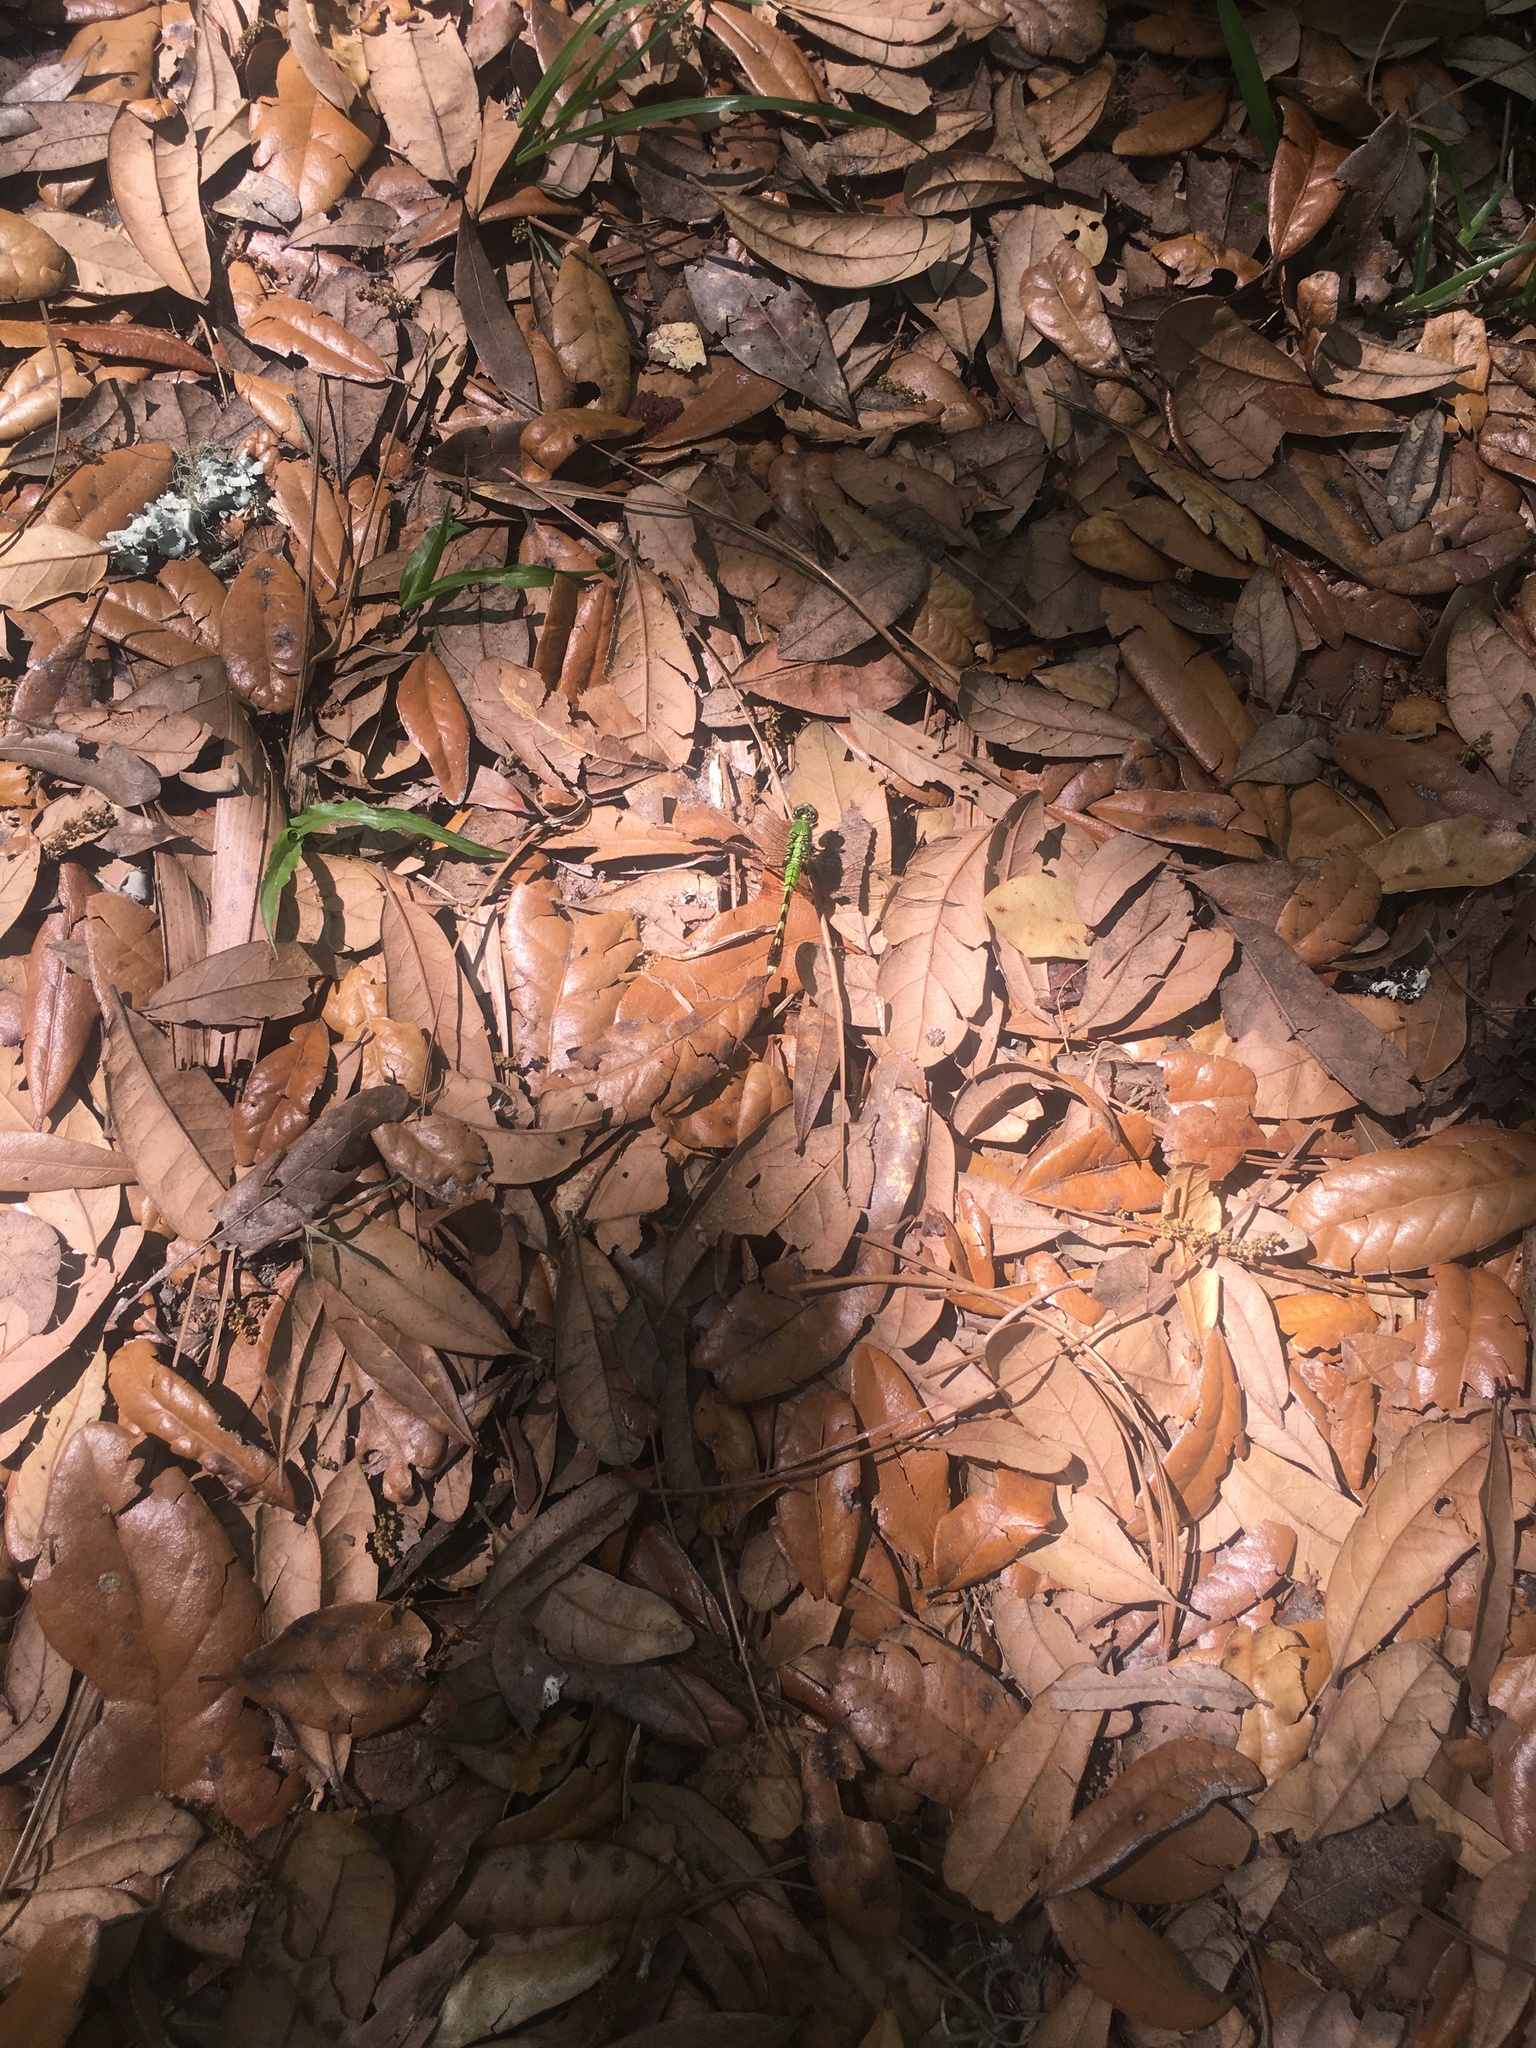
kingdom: Animalia
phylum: Arthropoda
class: Insecta
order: Odonata
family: Libellulidae
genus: Erythemis
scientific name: Erythemis simplicicollis
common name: Eastern pondhawk
